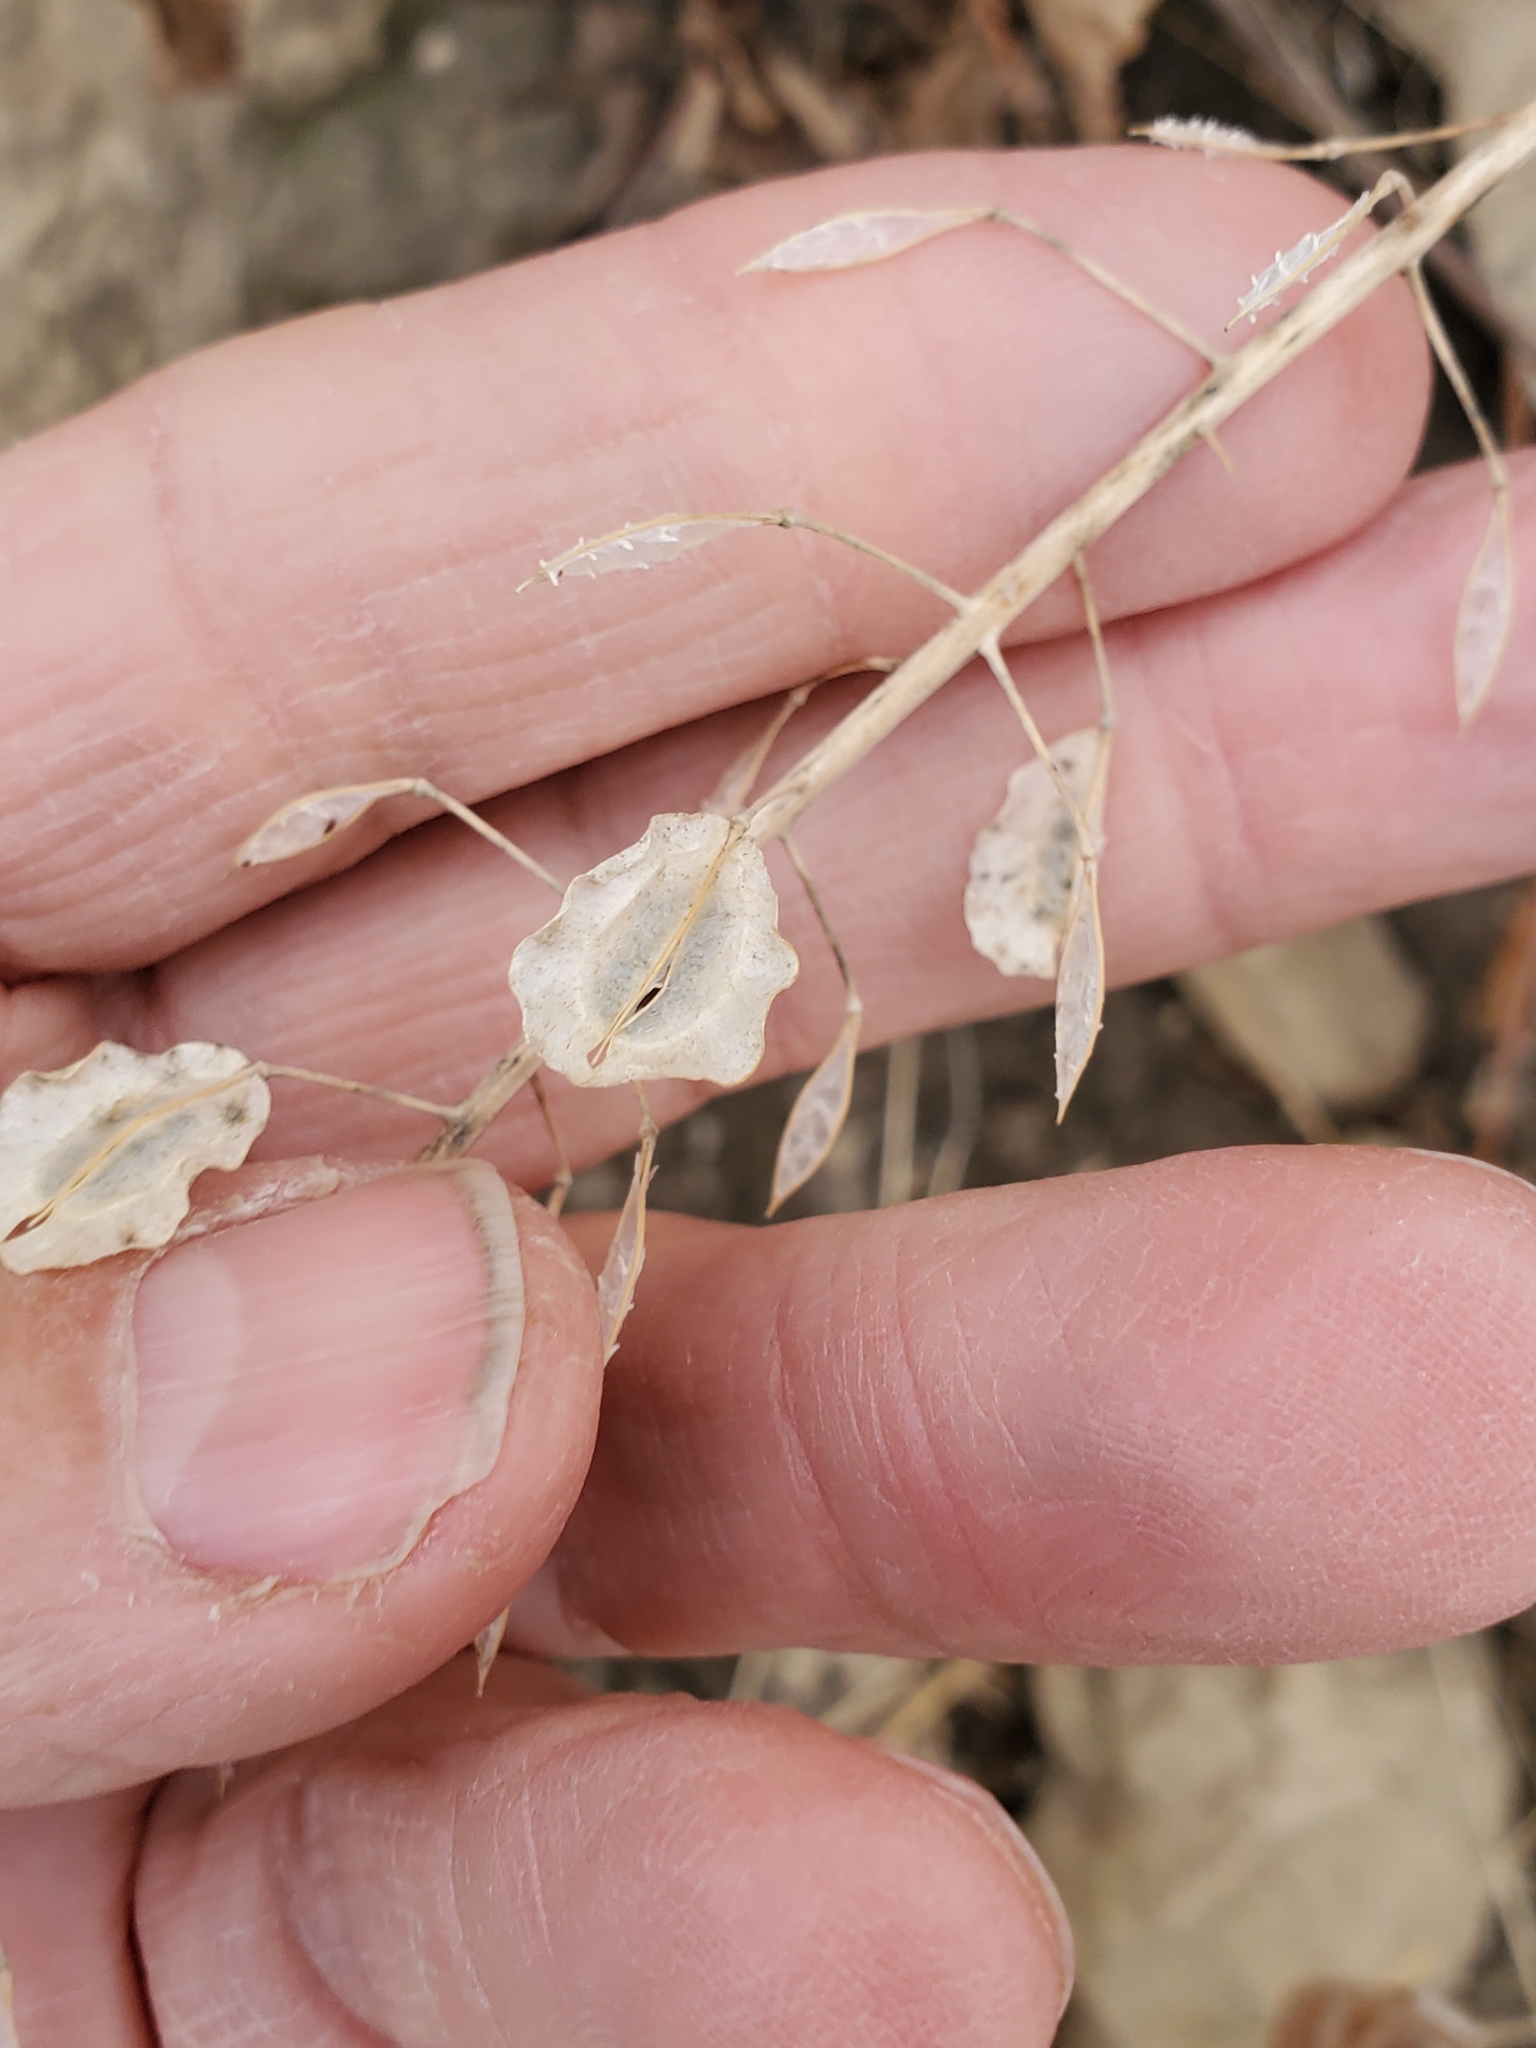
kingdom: Plantae
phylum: Tracheophyta
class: Magnoliopsida
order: Brassicales
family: Brassicaceae
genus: Thlaspi
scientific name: Thlaspi arvense
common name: Field pennycress
